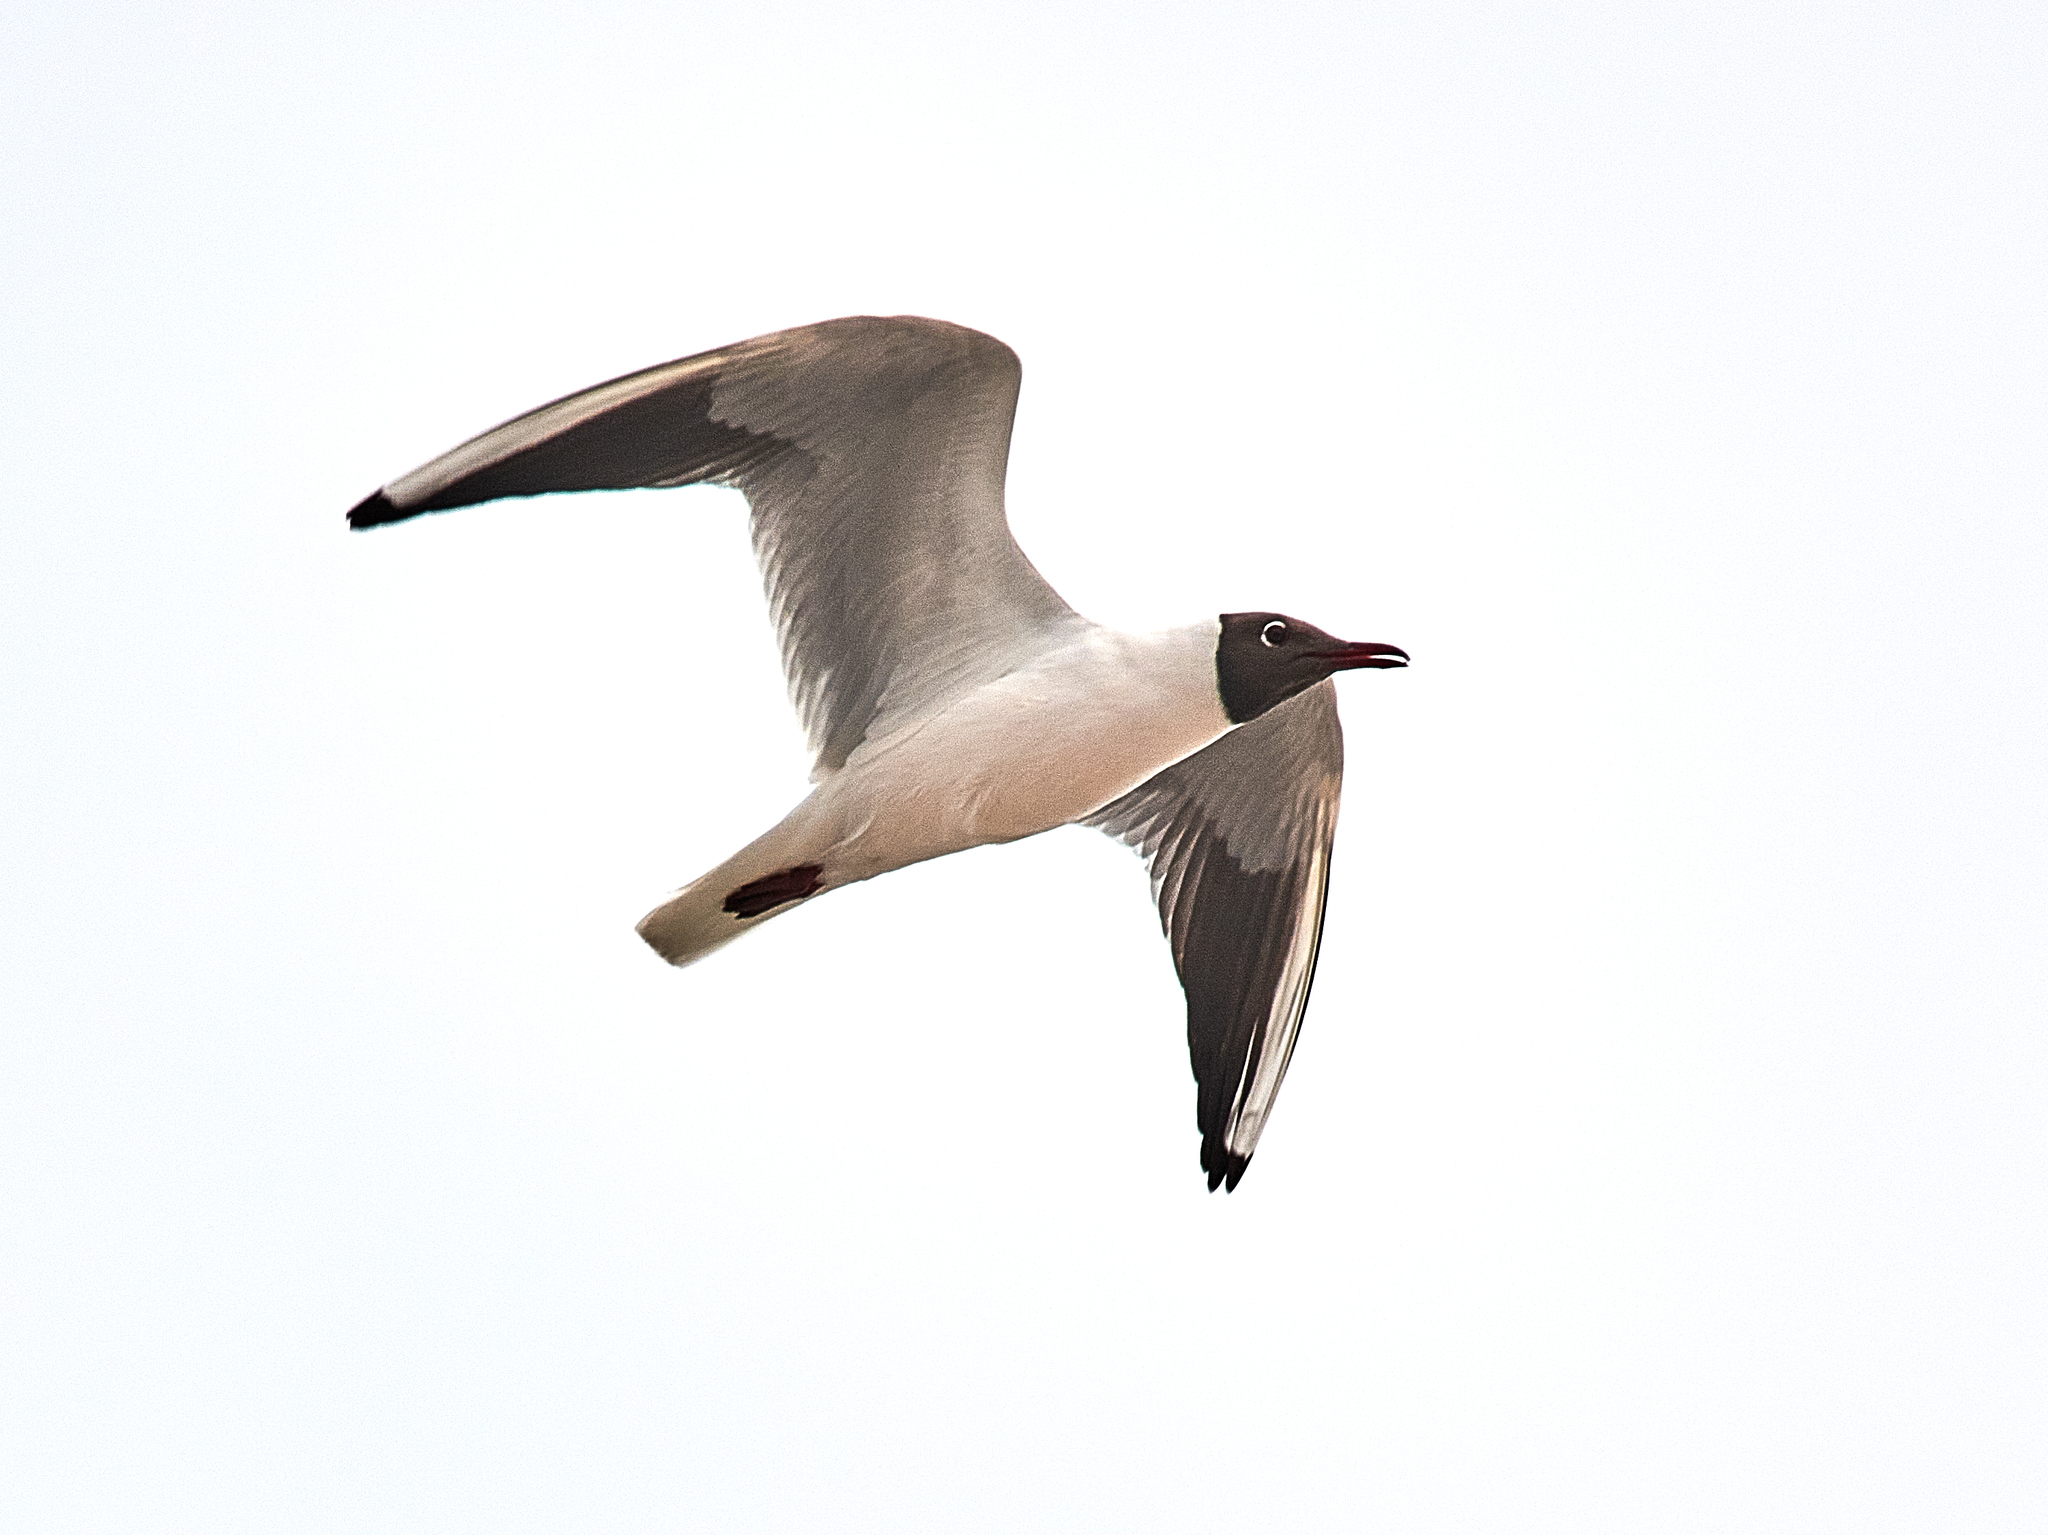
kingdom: Animalia
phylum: Chordata
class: Aves
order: Charadriiformes
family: Laridae
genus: Chroicocephalus
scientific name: Chroicocephalus ridibundus
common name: Black-headed gull
